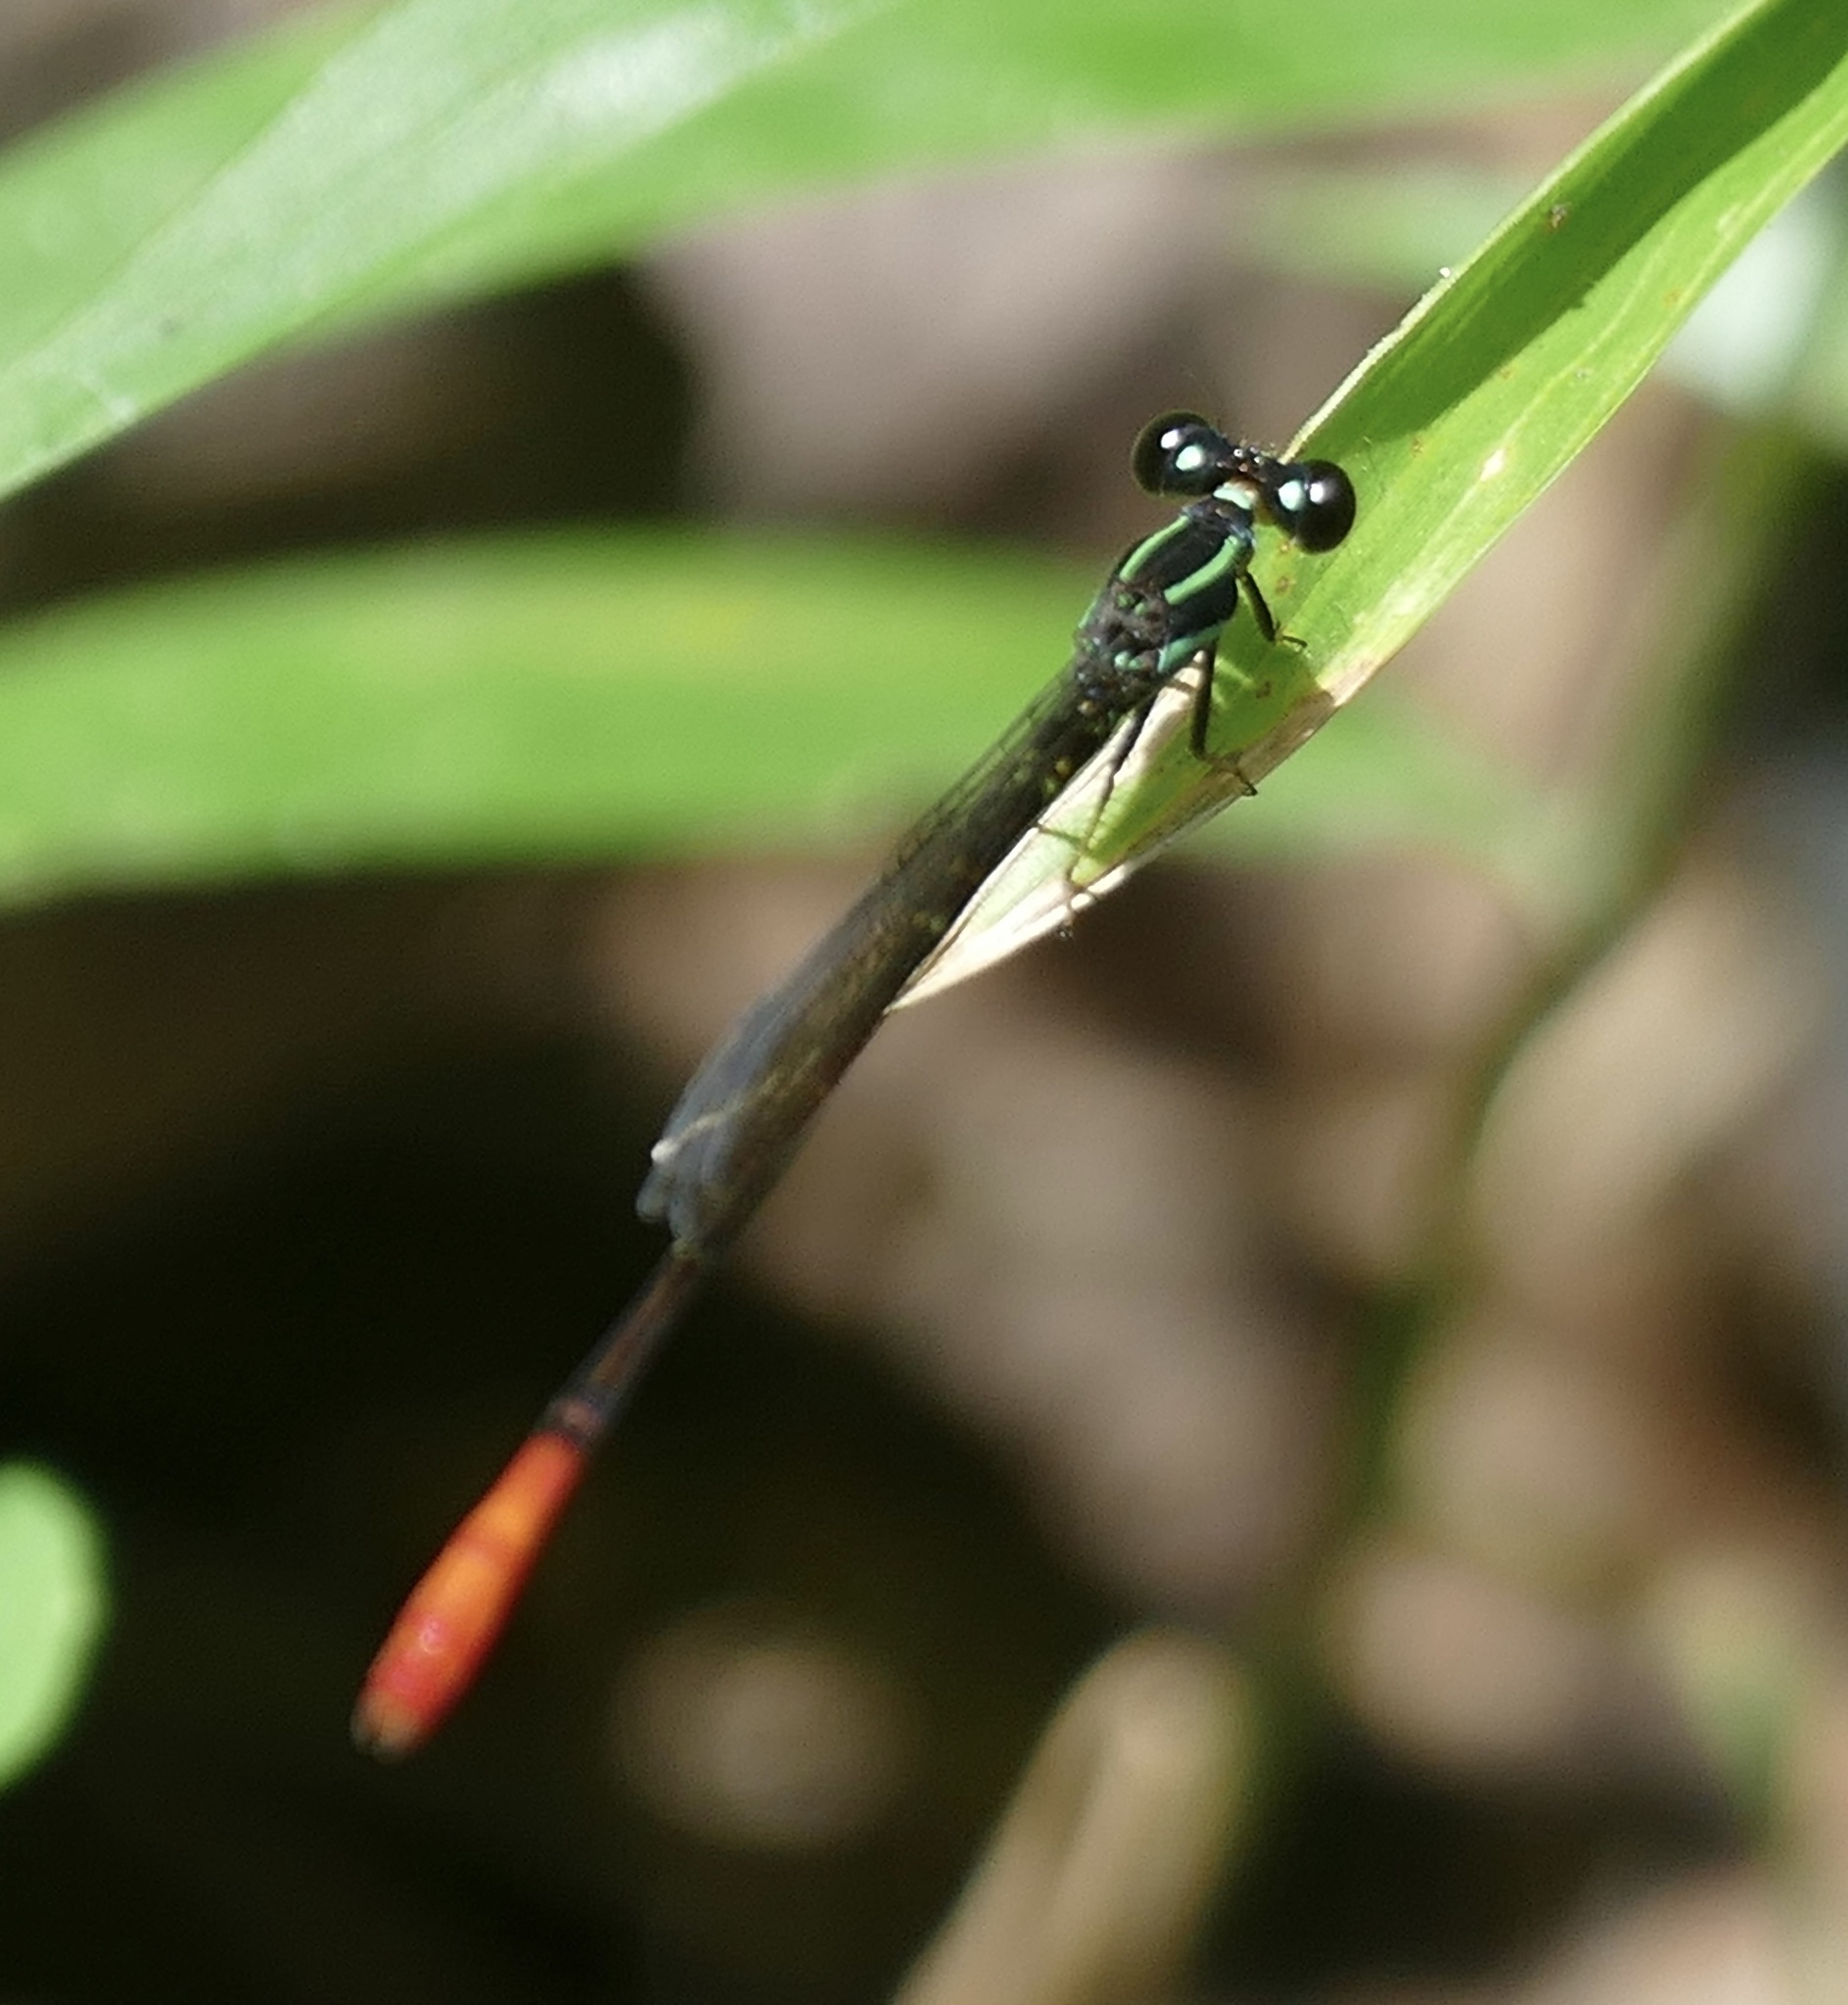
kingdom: Animalia
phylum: Arthropoda
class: Insecta
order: Odonata
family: Coenagrionidae
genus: Argiocnemis
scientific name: Argiocnemis rubescens
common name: Red-tipped shadefly
